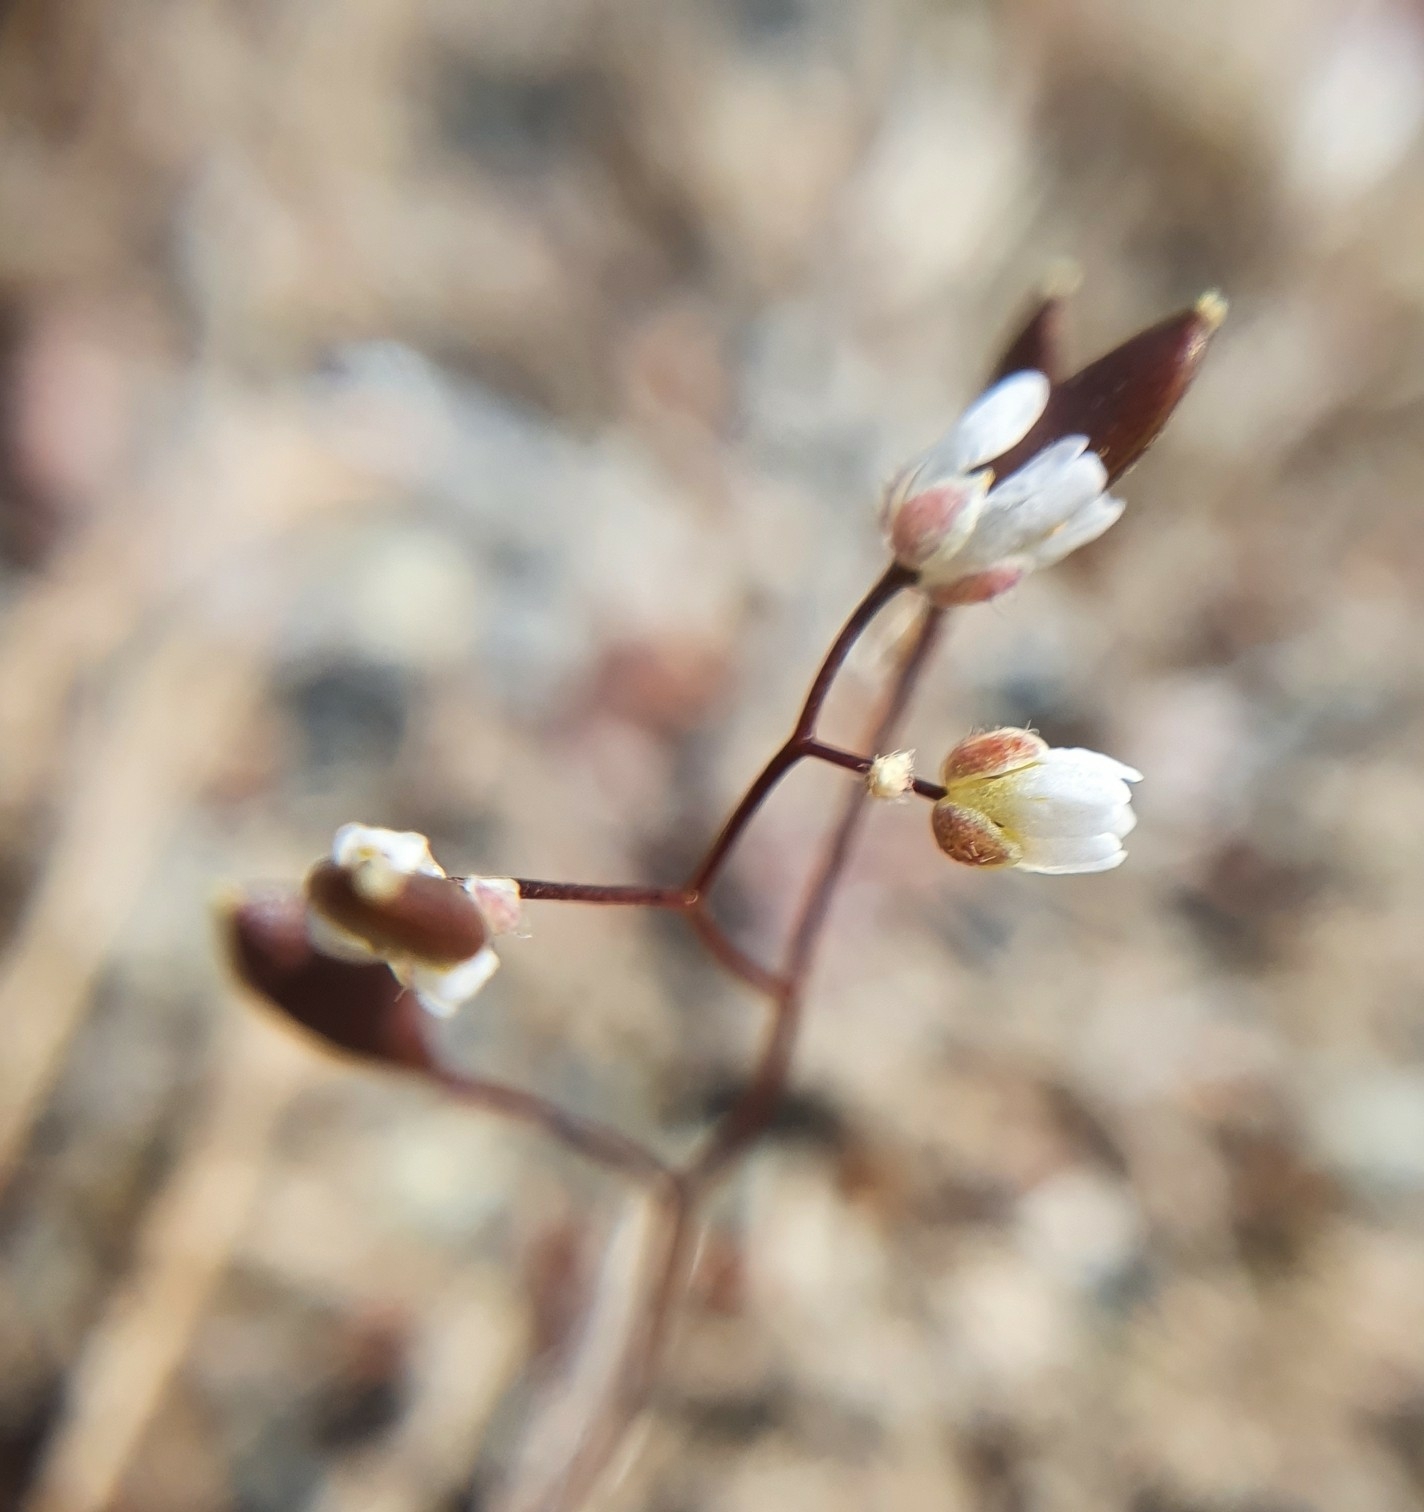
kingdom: Plantae
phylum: Tracheophyta
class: Magnoliopsida
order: Brassicales
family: Brassicaceae
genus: Draba
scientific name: Draba verna
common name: Spring draba
